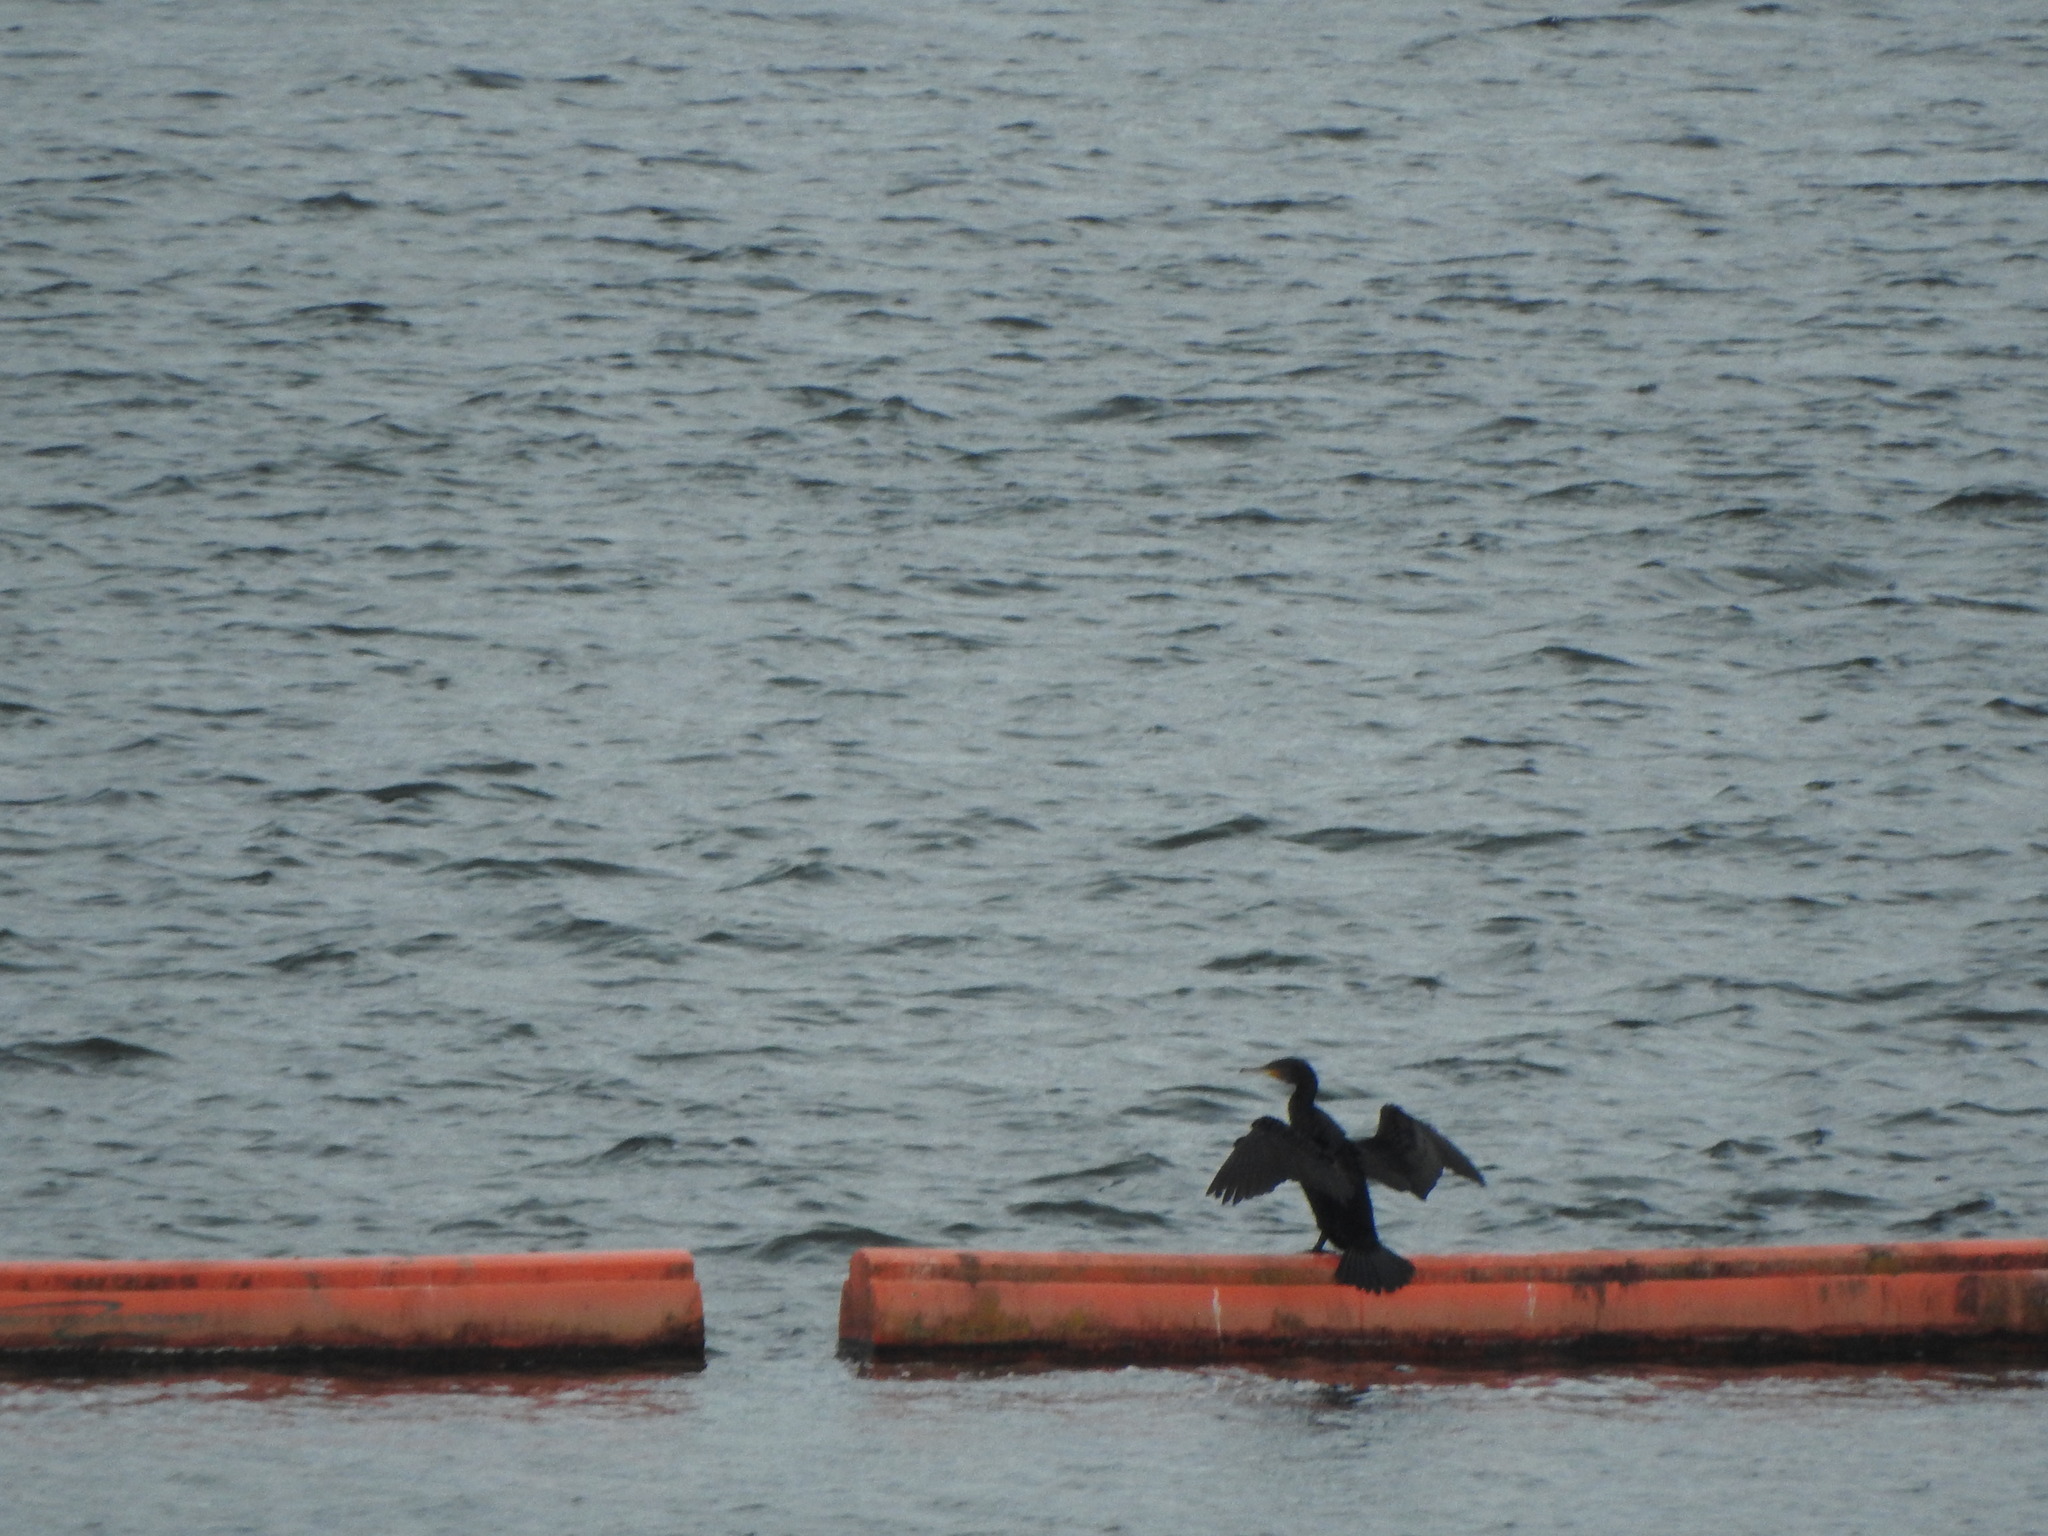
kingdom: Animalia
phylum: Chordata
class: Aves
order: Suliformes
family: Phalacrocoracidae
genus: Phalacrocorax
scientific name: Phalacrocorax carbo
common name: Great cormorant
